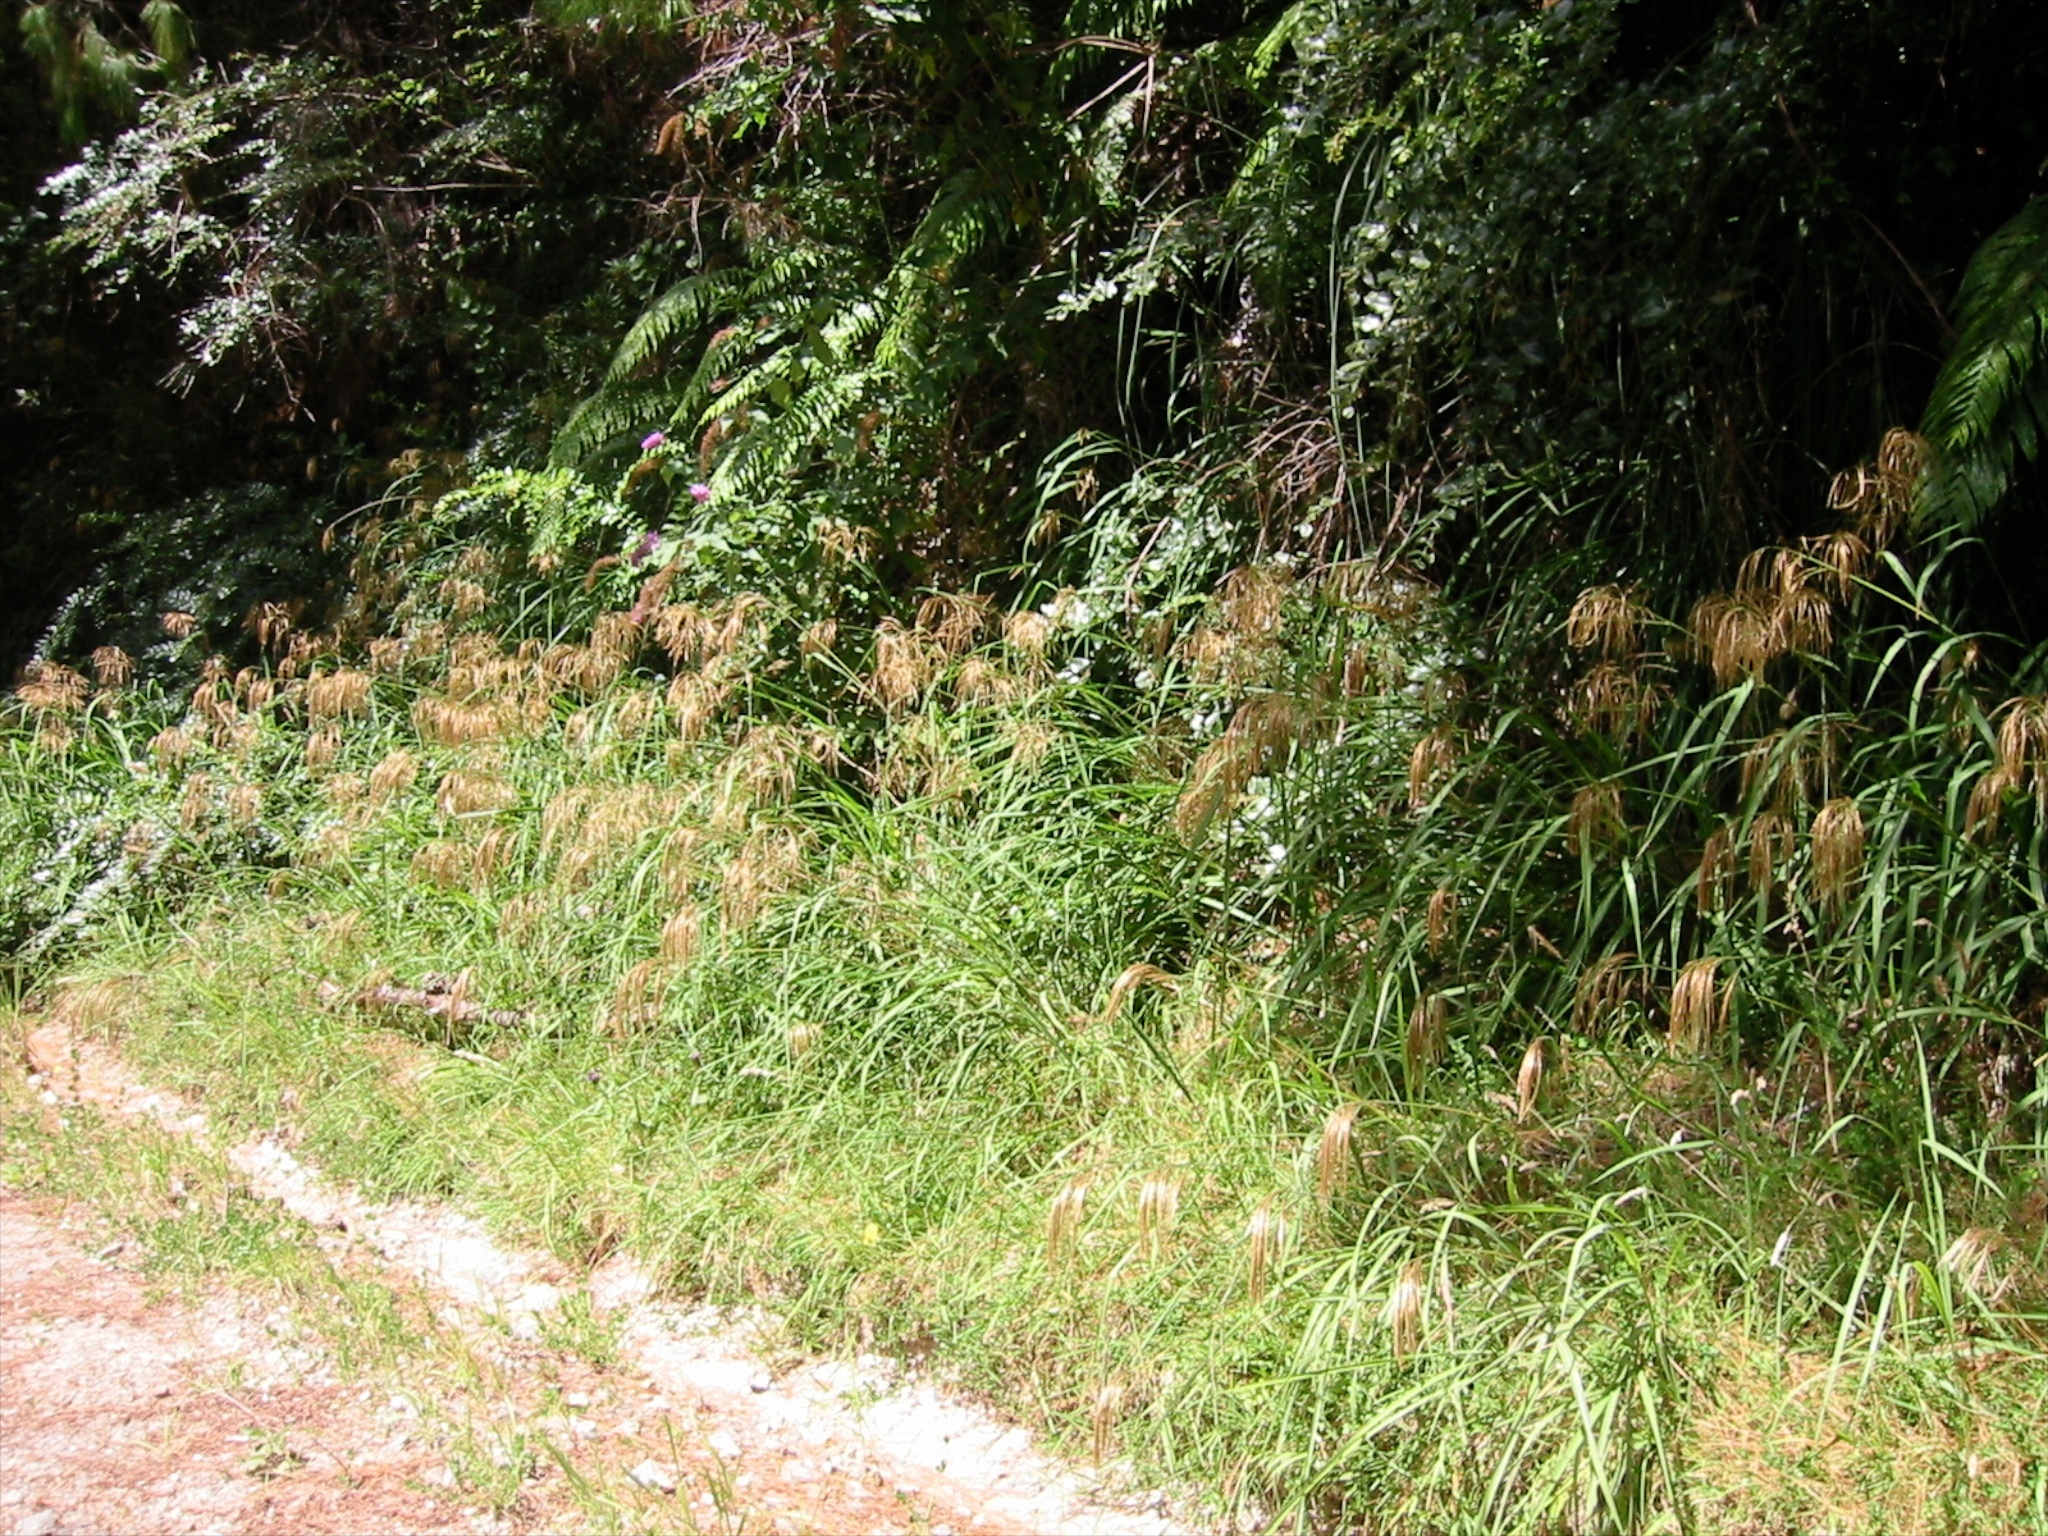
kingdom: Plantae
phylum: Tracheophyta
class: Liliopsida
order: Poales
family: Poaceae
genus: Miscanthus
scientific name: Miscanthus nepalensis
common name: Nepal silver grass
